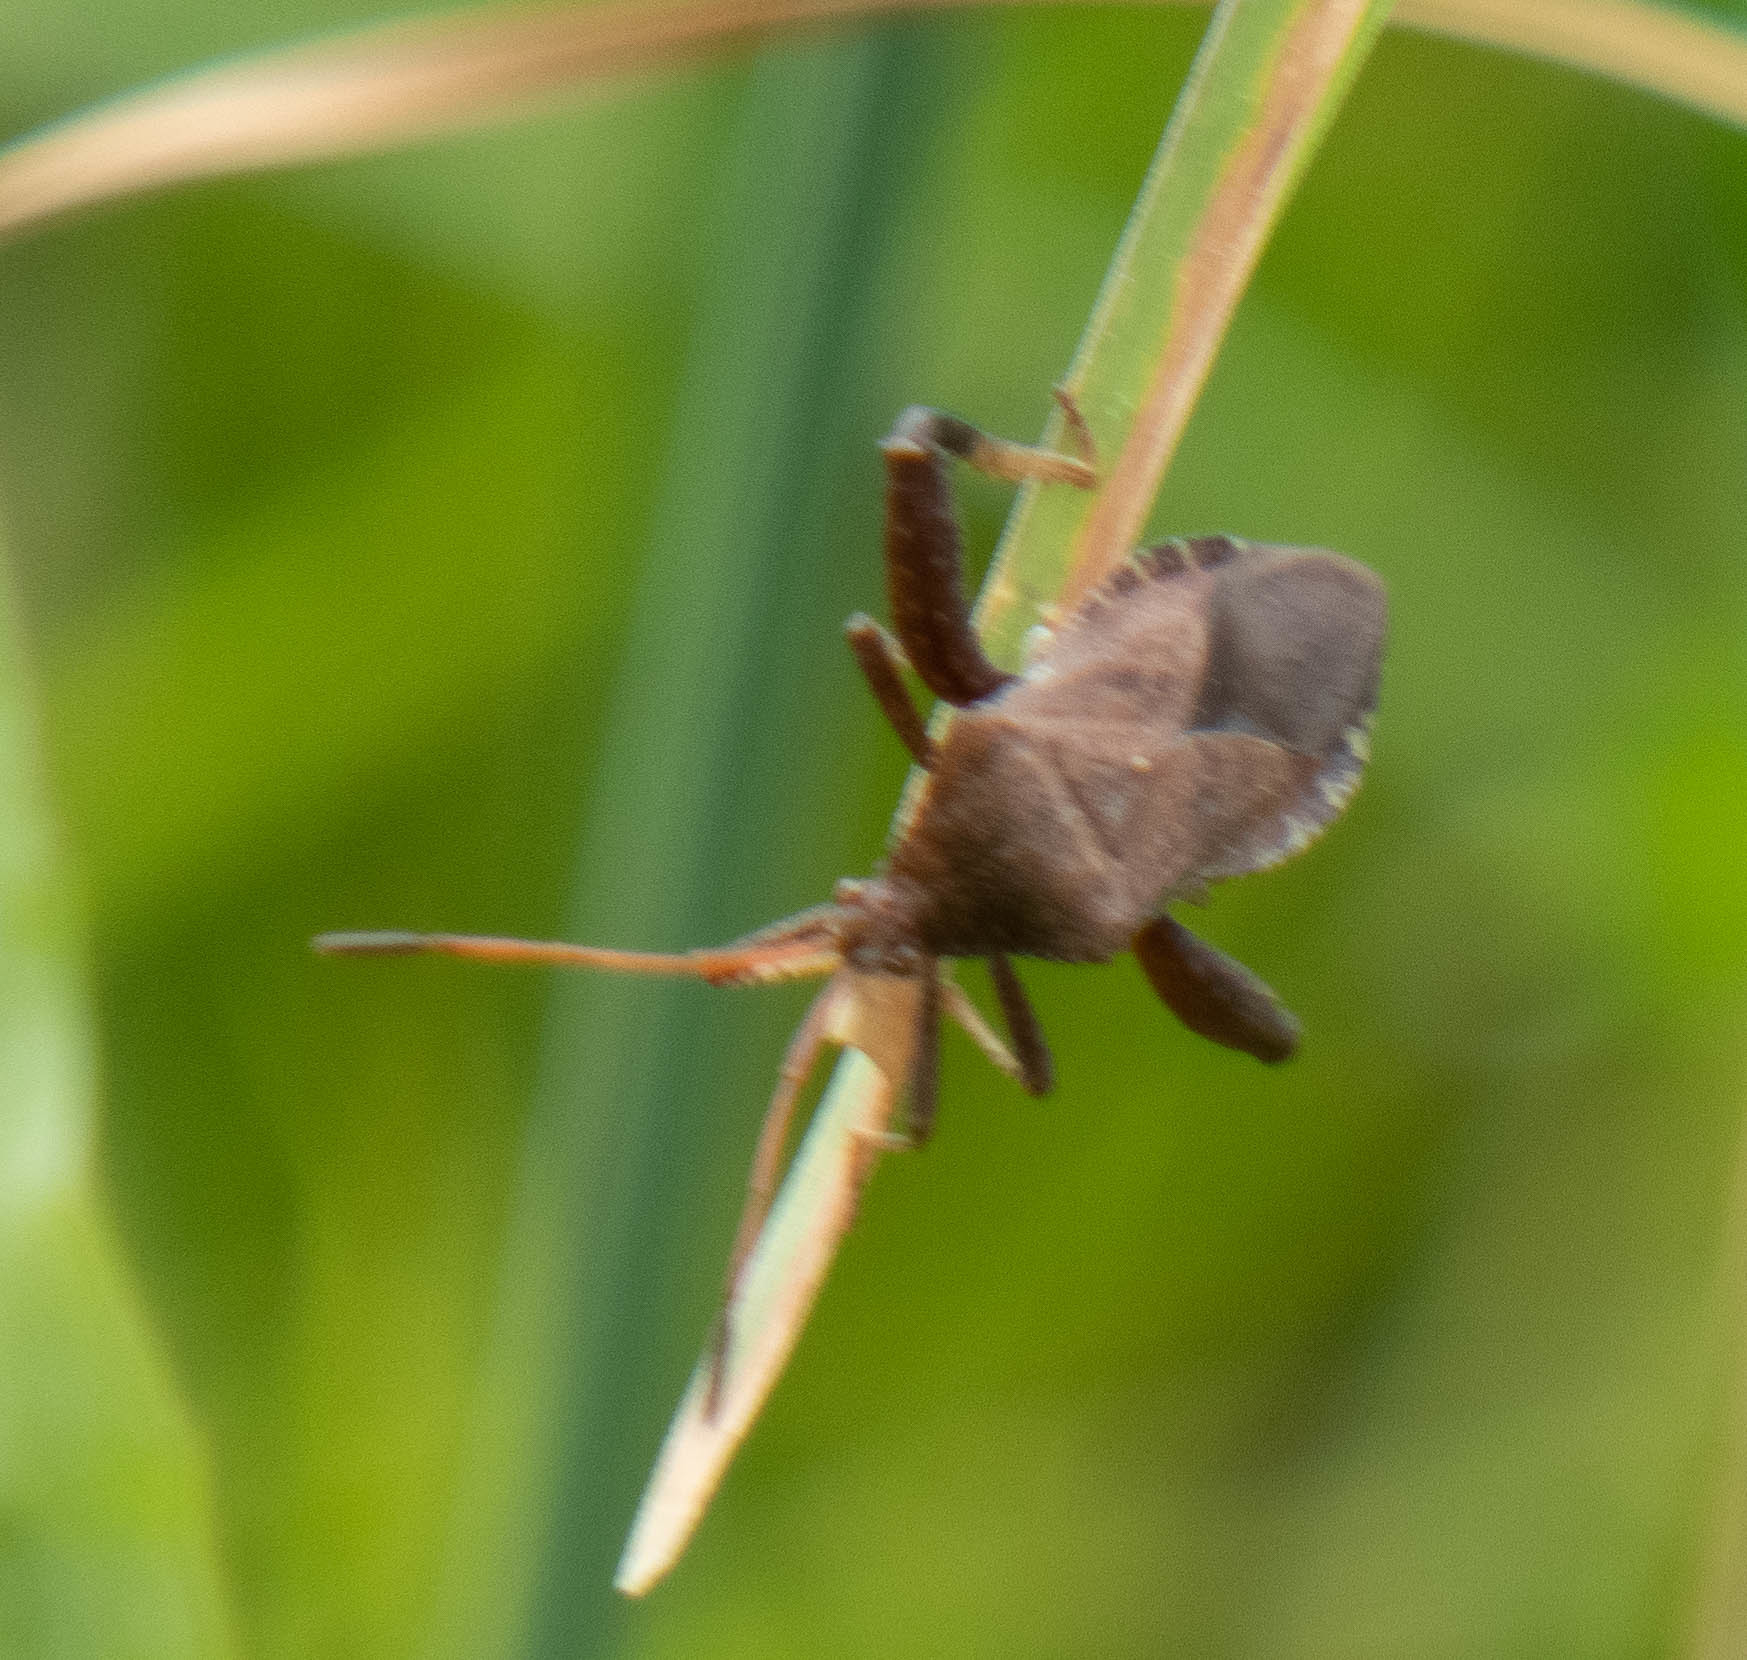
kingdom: Animalia
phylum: Arthropoda
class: Insecta
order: Hemiptera
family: Coreidae
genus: Euthochtha
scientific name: Euthochtha galeator
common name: Helmeted squash bug
